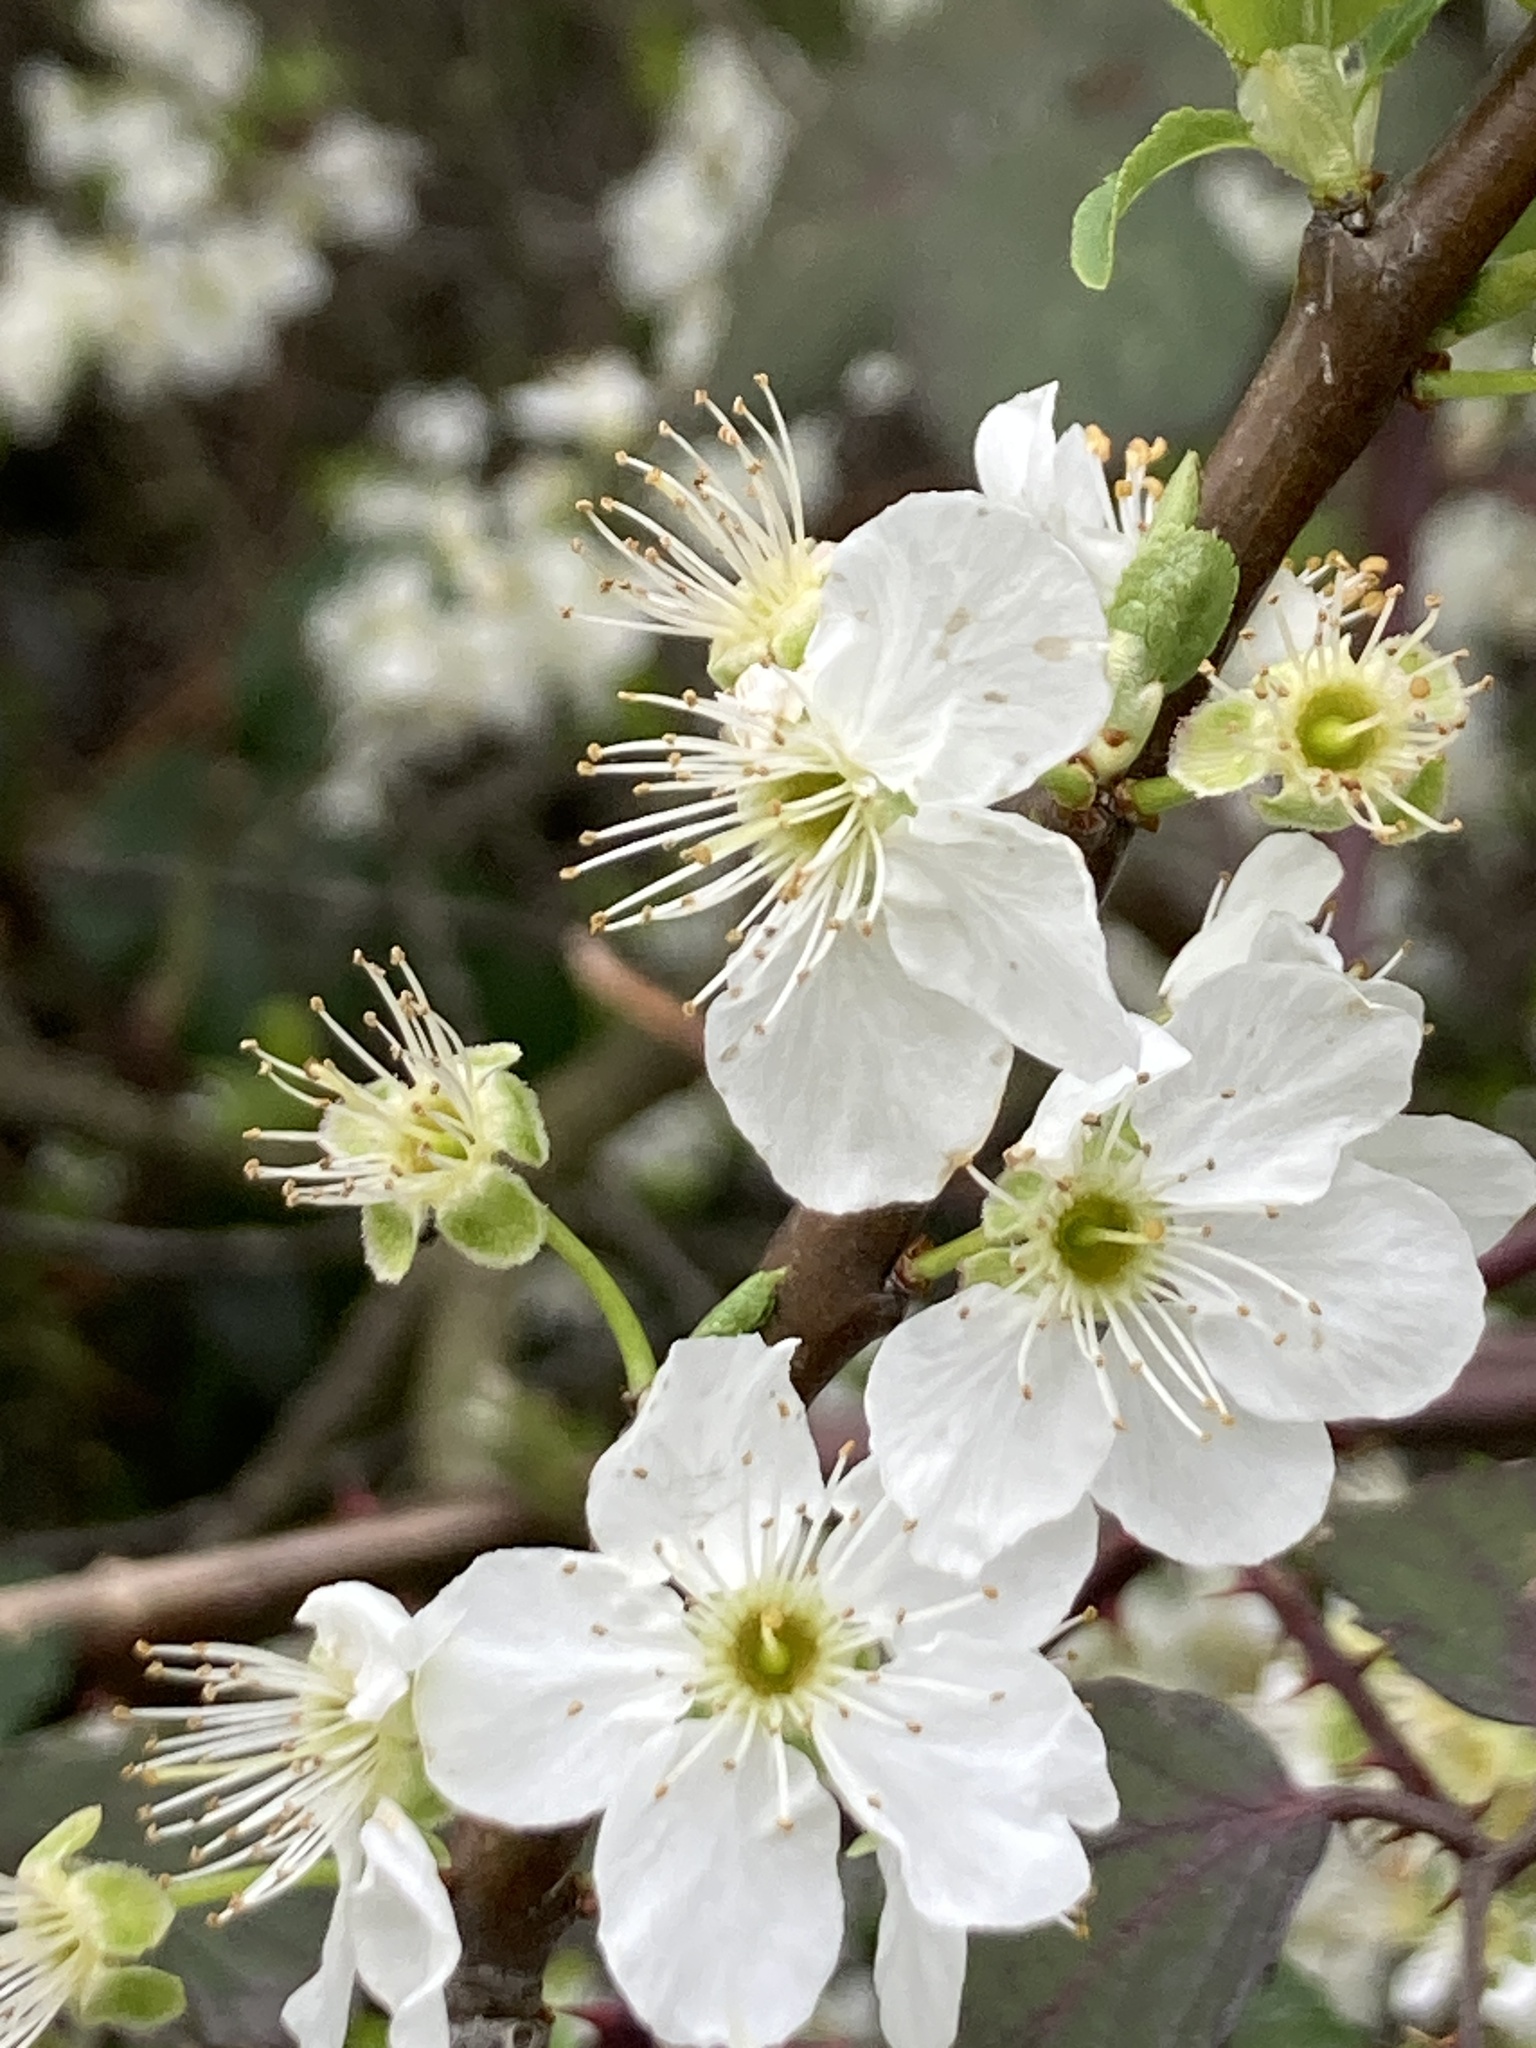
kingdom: Plantae
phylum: Tracheophyta
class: Magnoliopsida
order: Rosales
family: Rosaceae
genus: Prunus
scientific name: Prunus cerasifera
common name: Cherry plum
